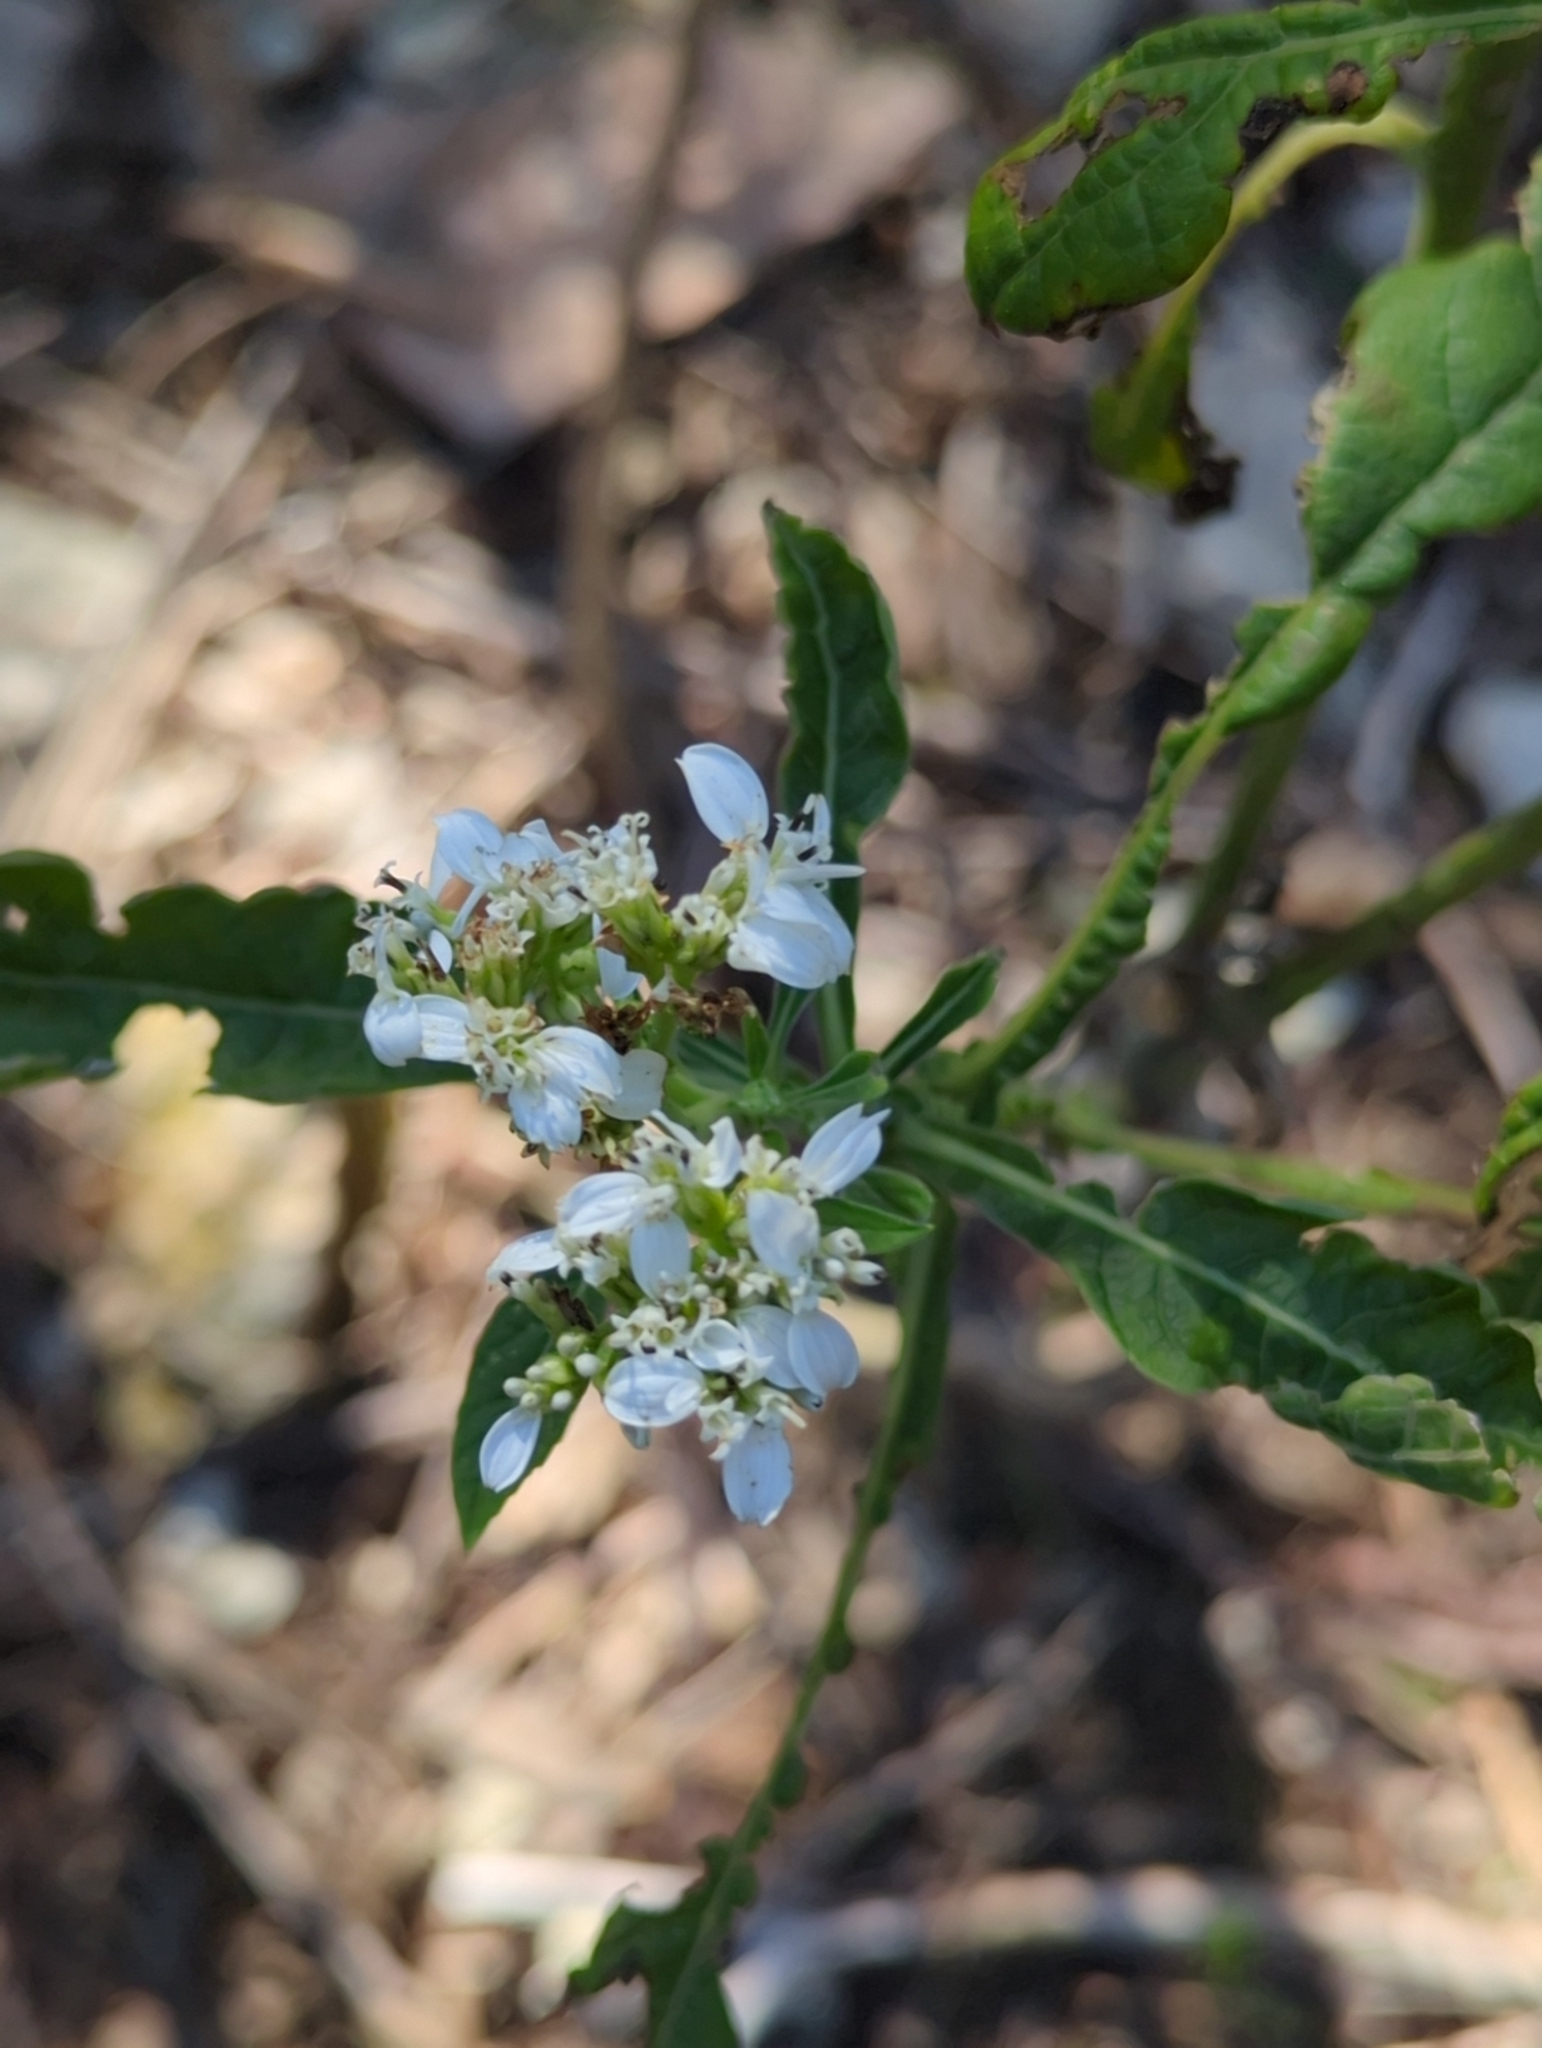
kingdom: Plantae
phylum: Tracheophyta
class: Magnoliopsida
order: Asterales
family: Asteraceae
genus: Verbesina
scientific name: Verbesina virginica
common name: Frostweed
